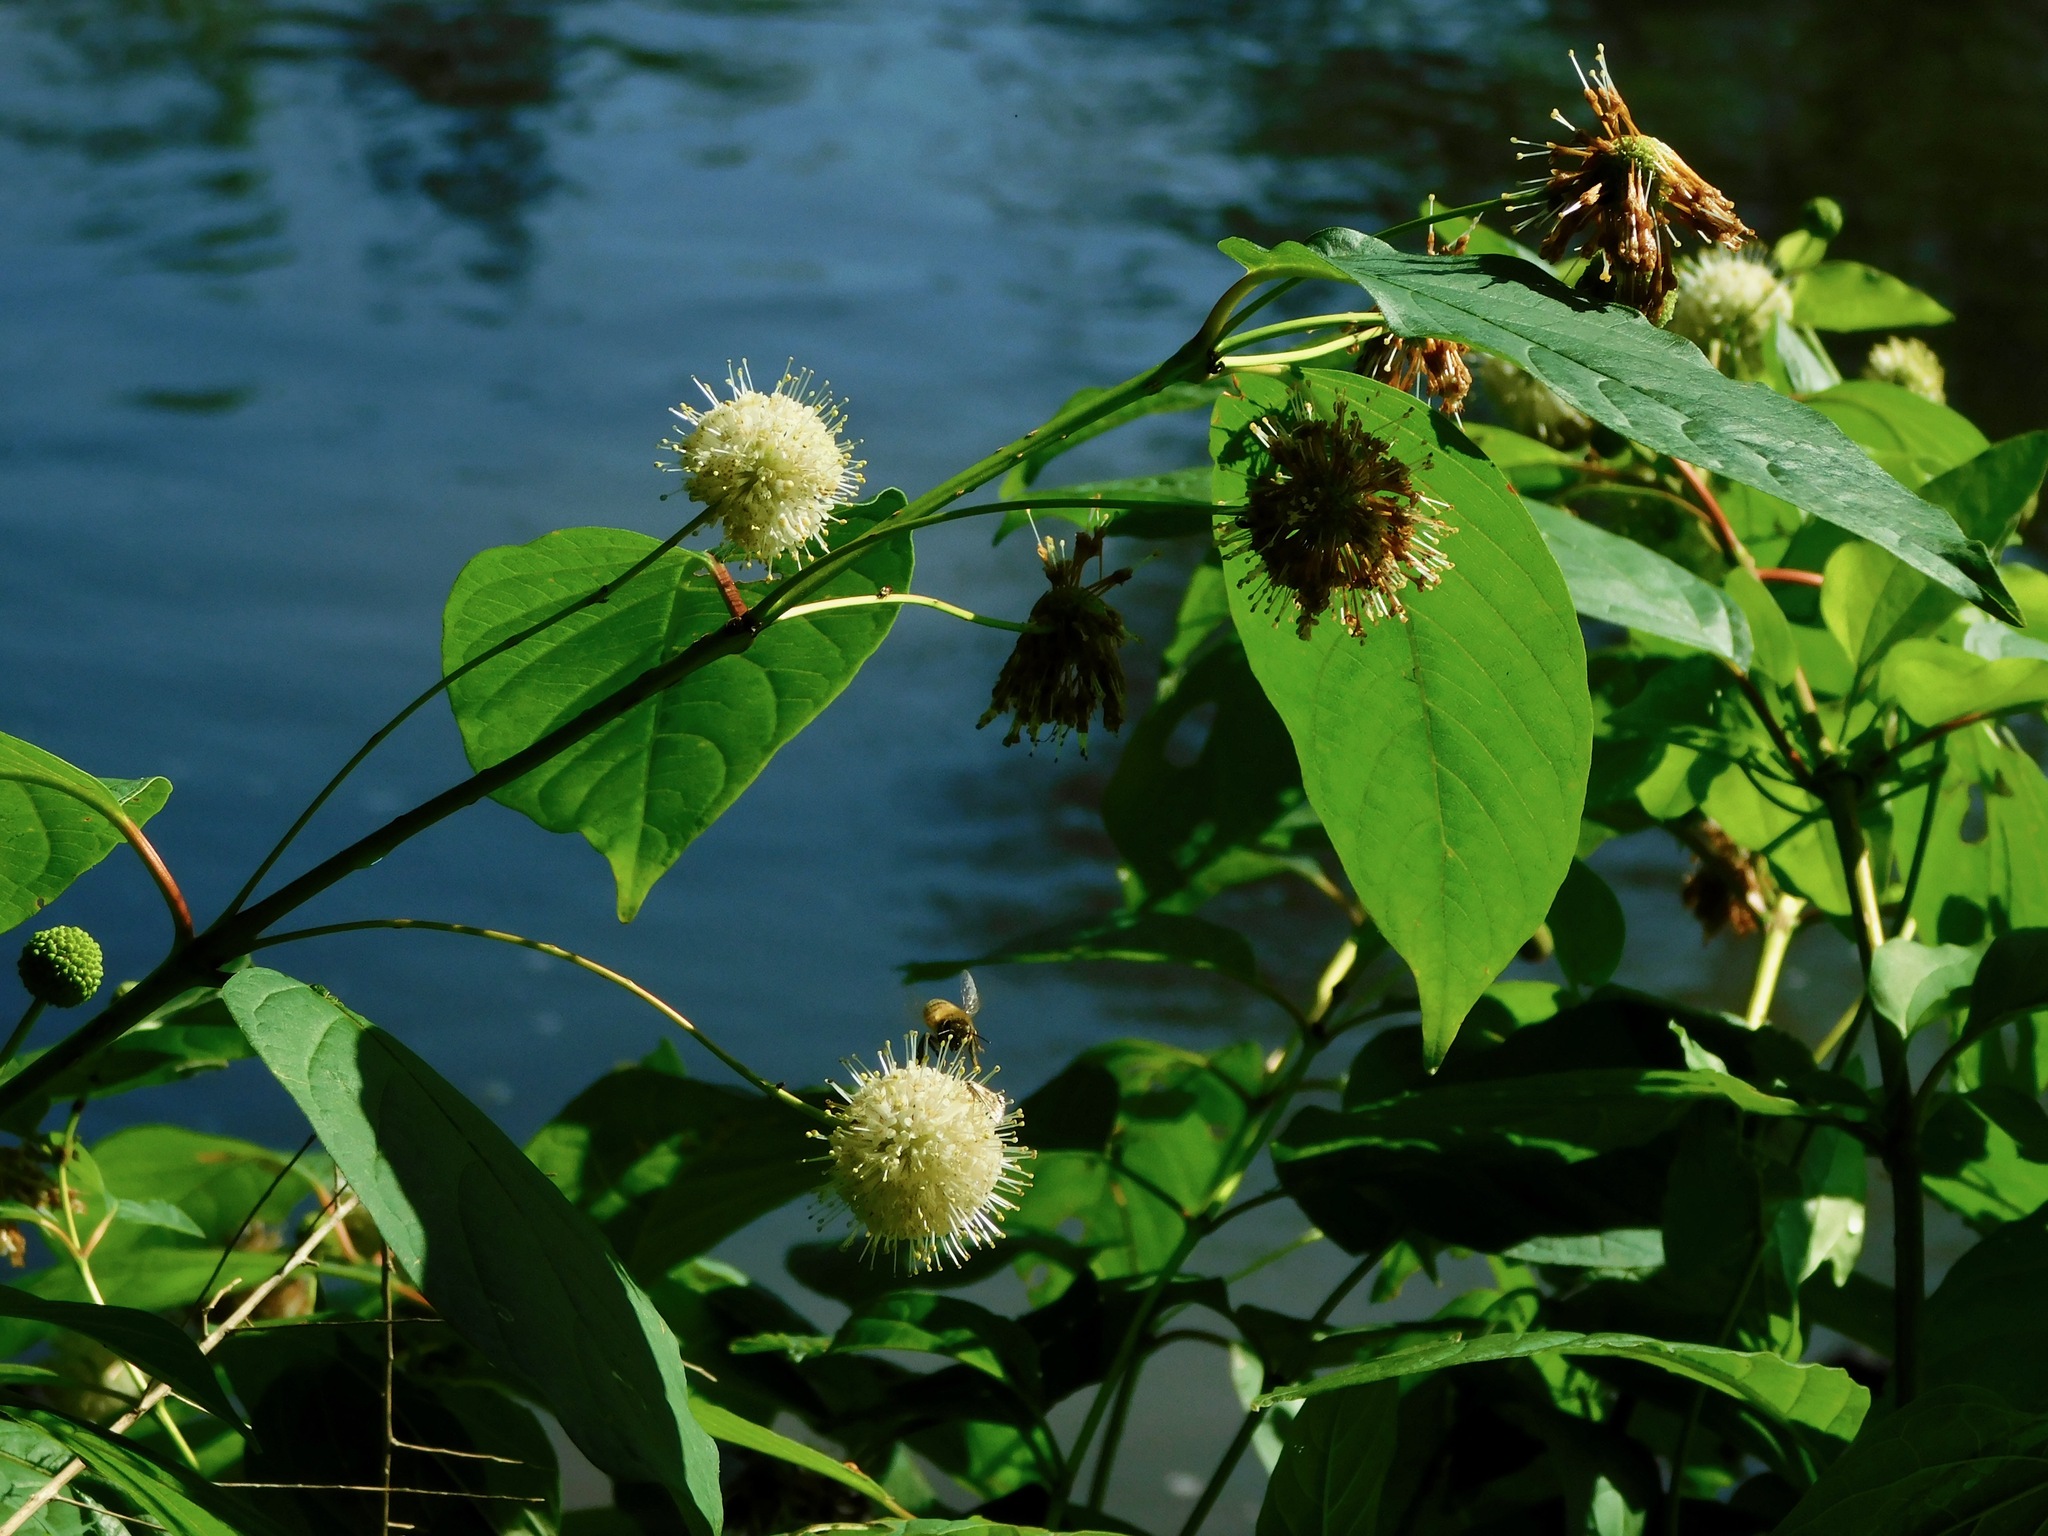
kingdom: Plantae
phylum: Tracheophyta
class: Magnoliopsida
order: Gentianales
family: Rubiaceae
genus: Cephalanthus
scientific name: Cephalanthus occidentalis
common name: Button-willow
